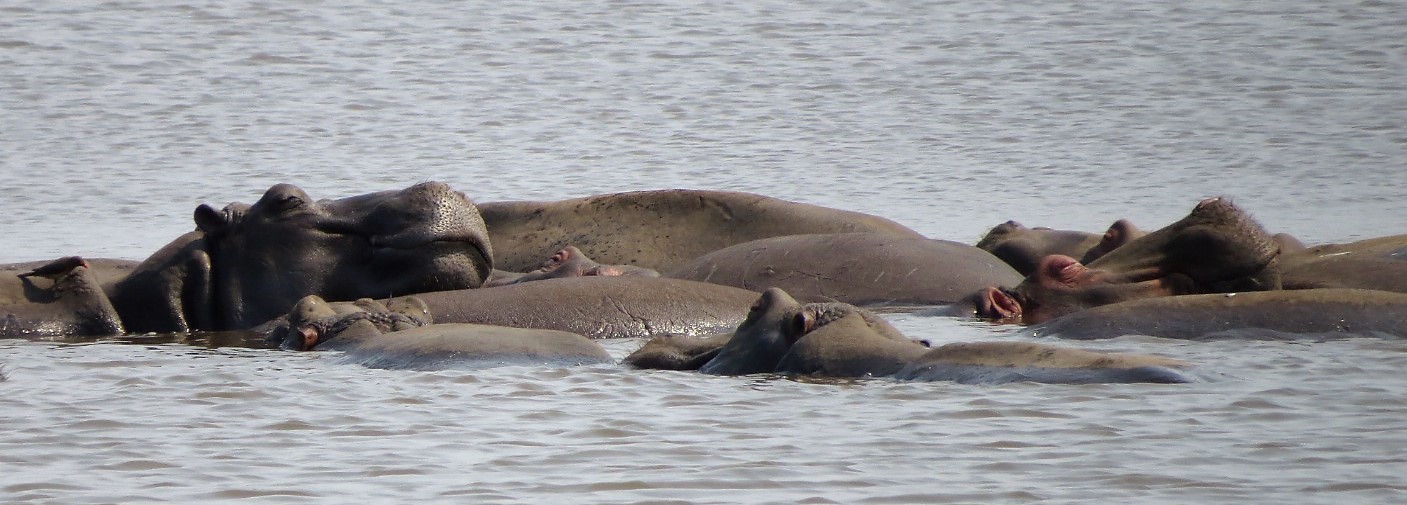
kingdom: Animalia
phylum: Chordata
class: Mammalia
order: Artiodactyla
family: Hippopotamidae
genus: Hippopotamus
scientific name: Hippopotamus amphibius
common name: Common hippopotamus
